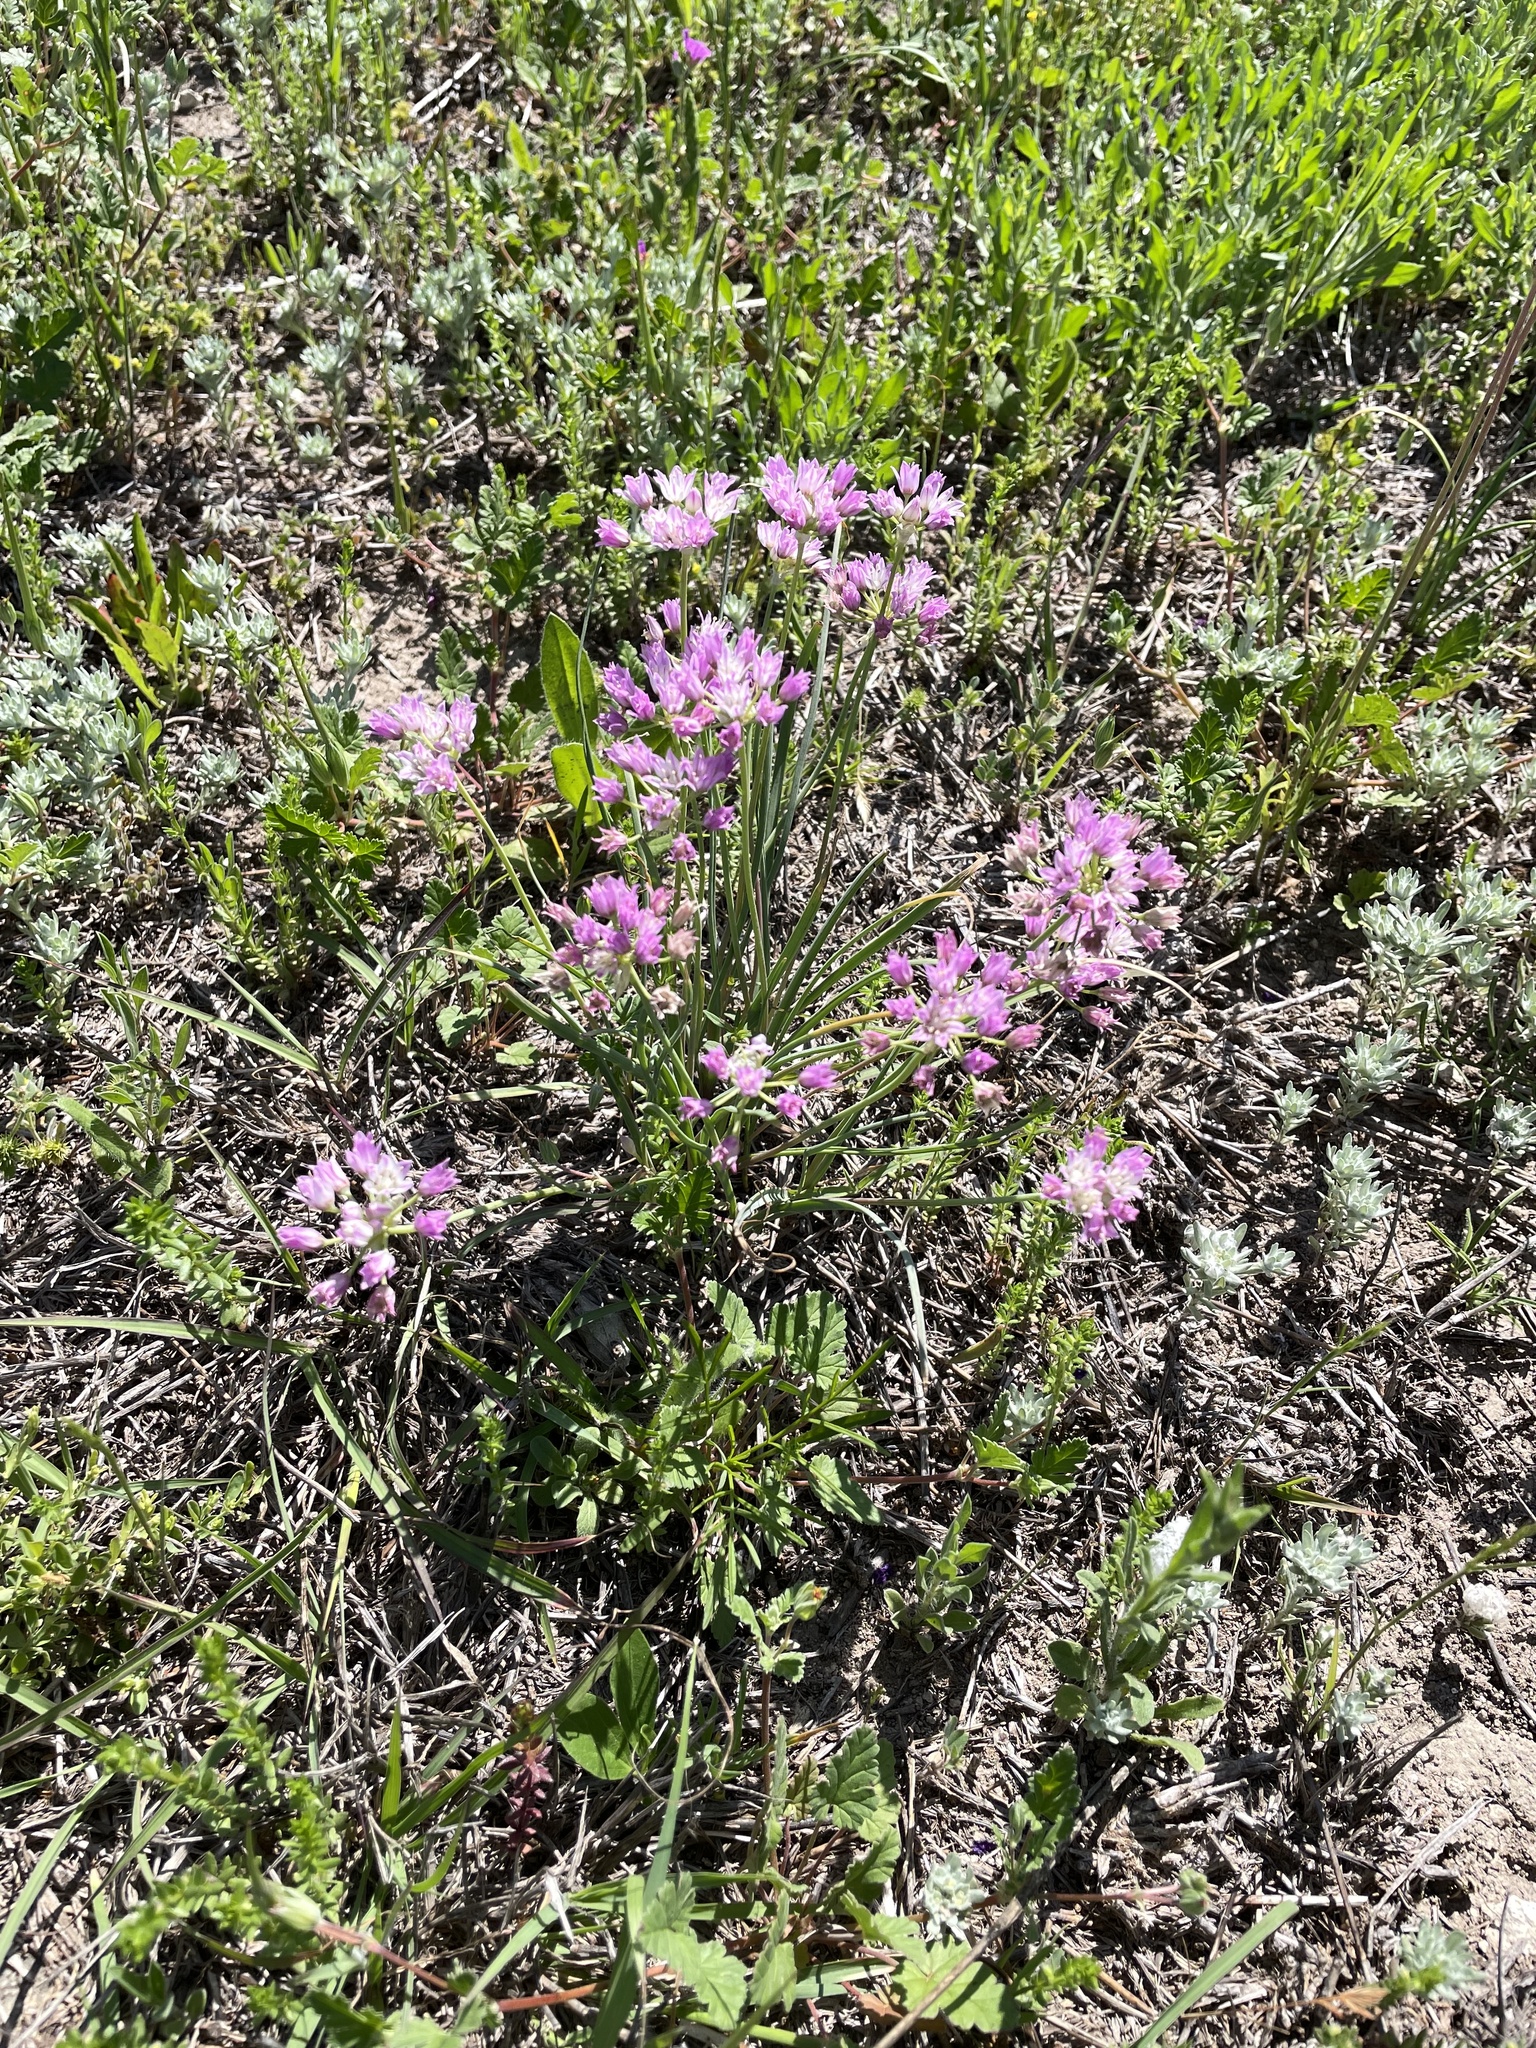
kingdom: Plantae
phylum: Tracheophyta
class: Liliopsida
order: Asparagales
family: Amaryllidaceae
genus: Allium
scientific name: Allium drummondii
